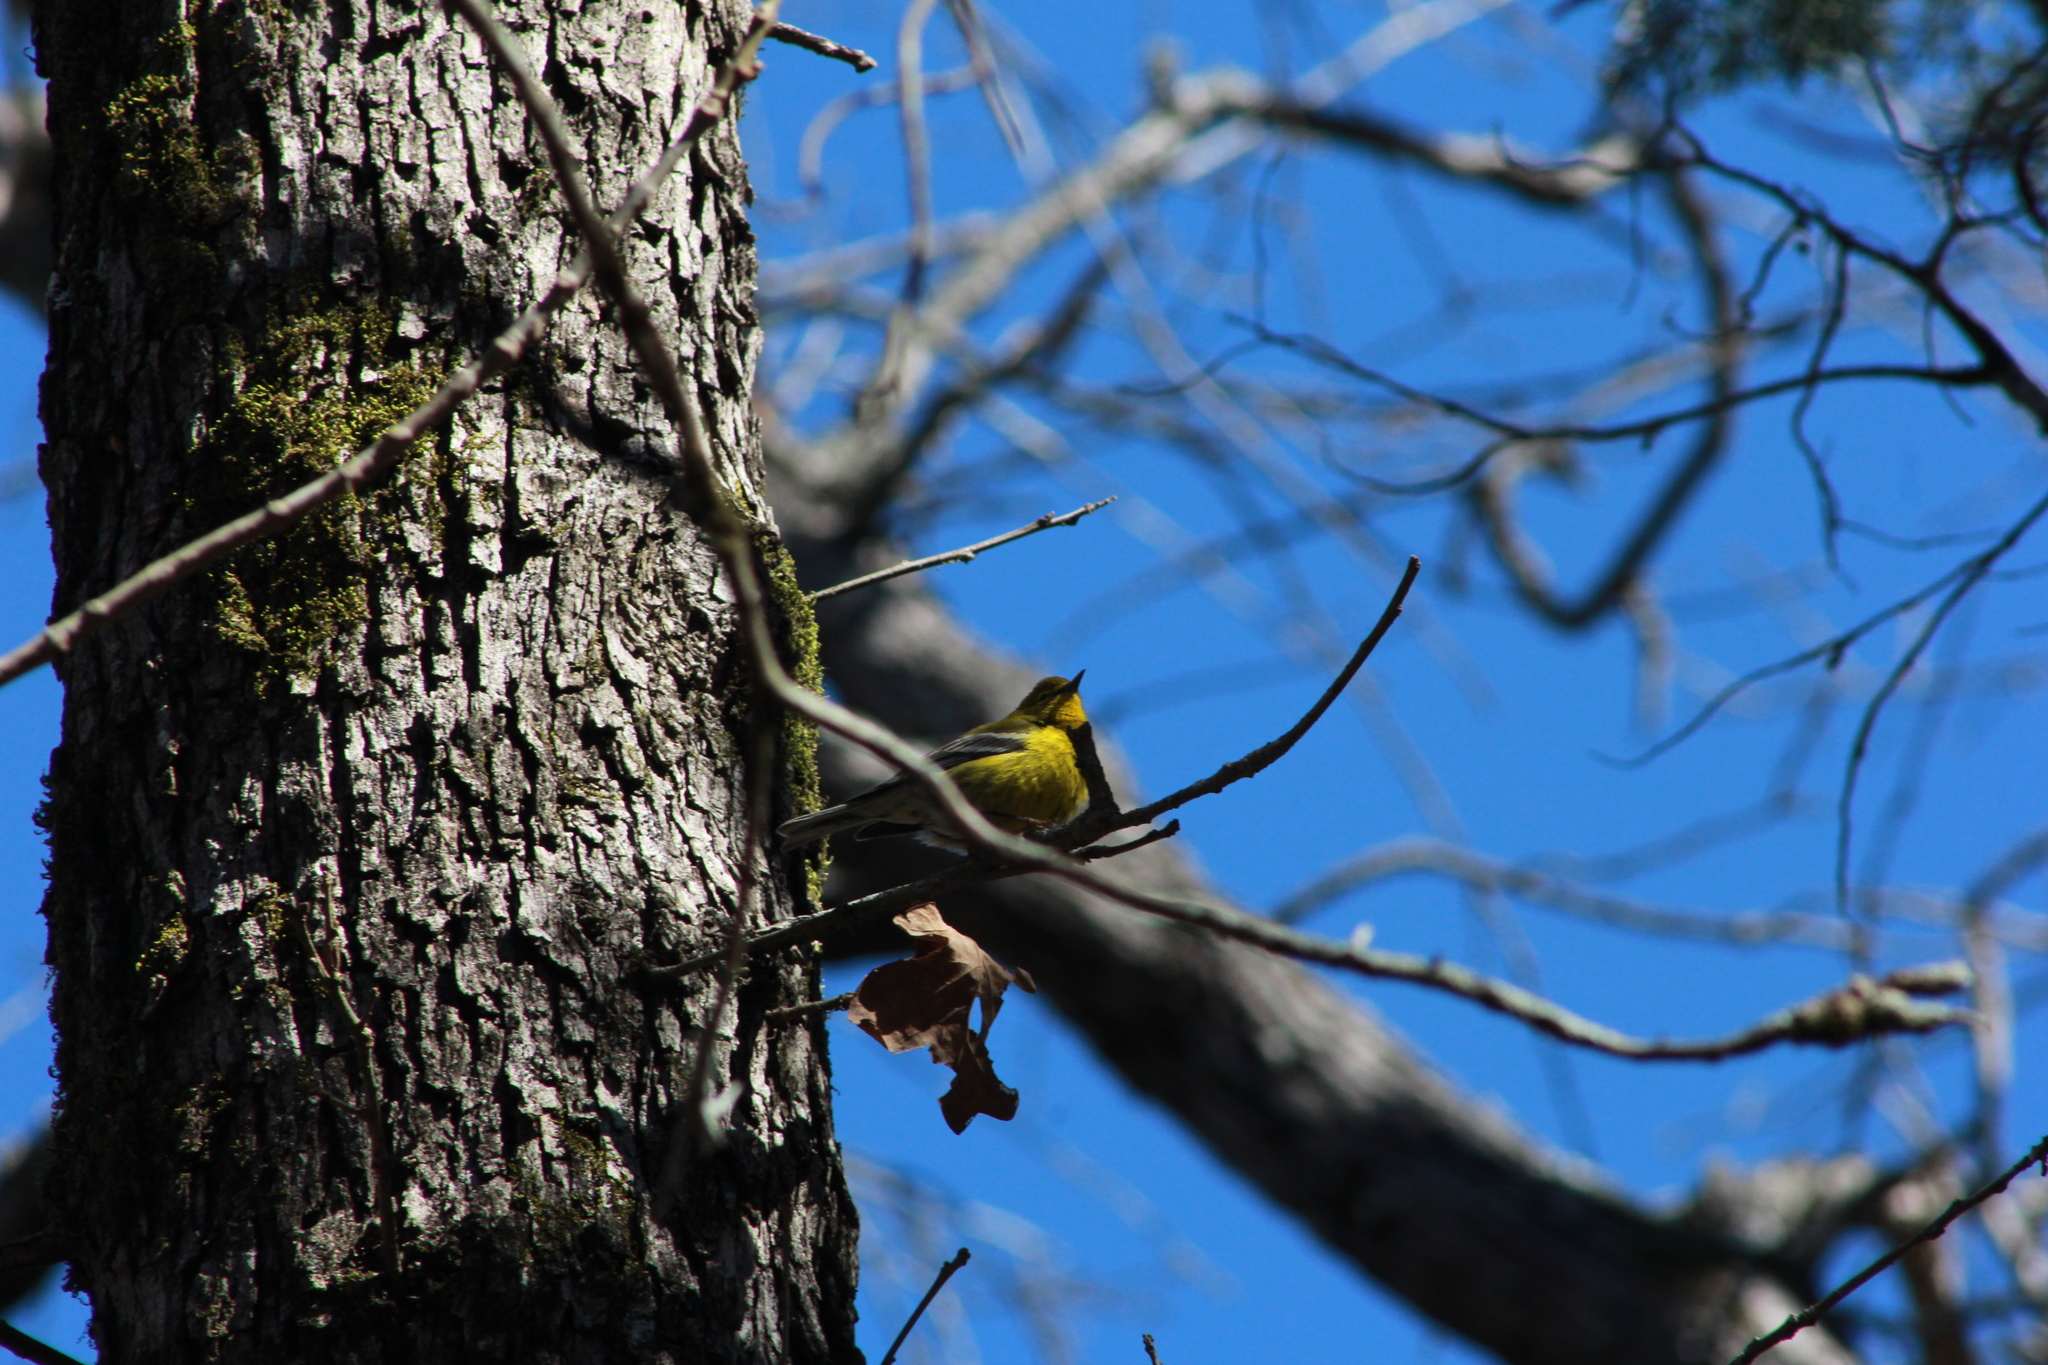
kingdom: Animalia
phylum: Chordata
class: Aves
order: Passeriformes
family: Parulidae
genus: Setophaga
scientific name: Setophaga pinus
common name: Pine warbler
